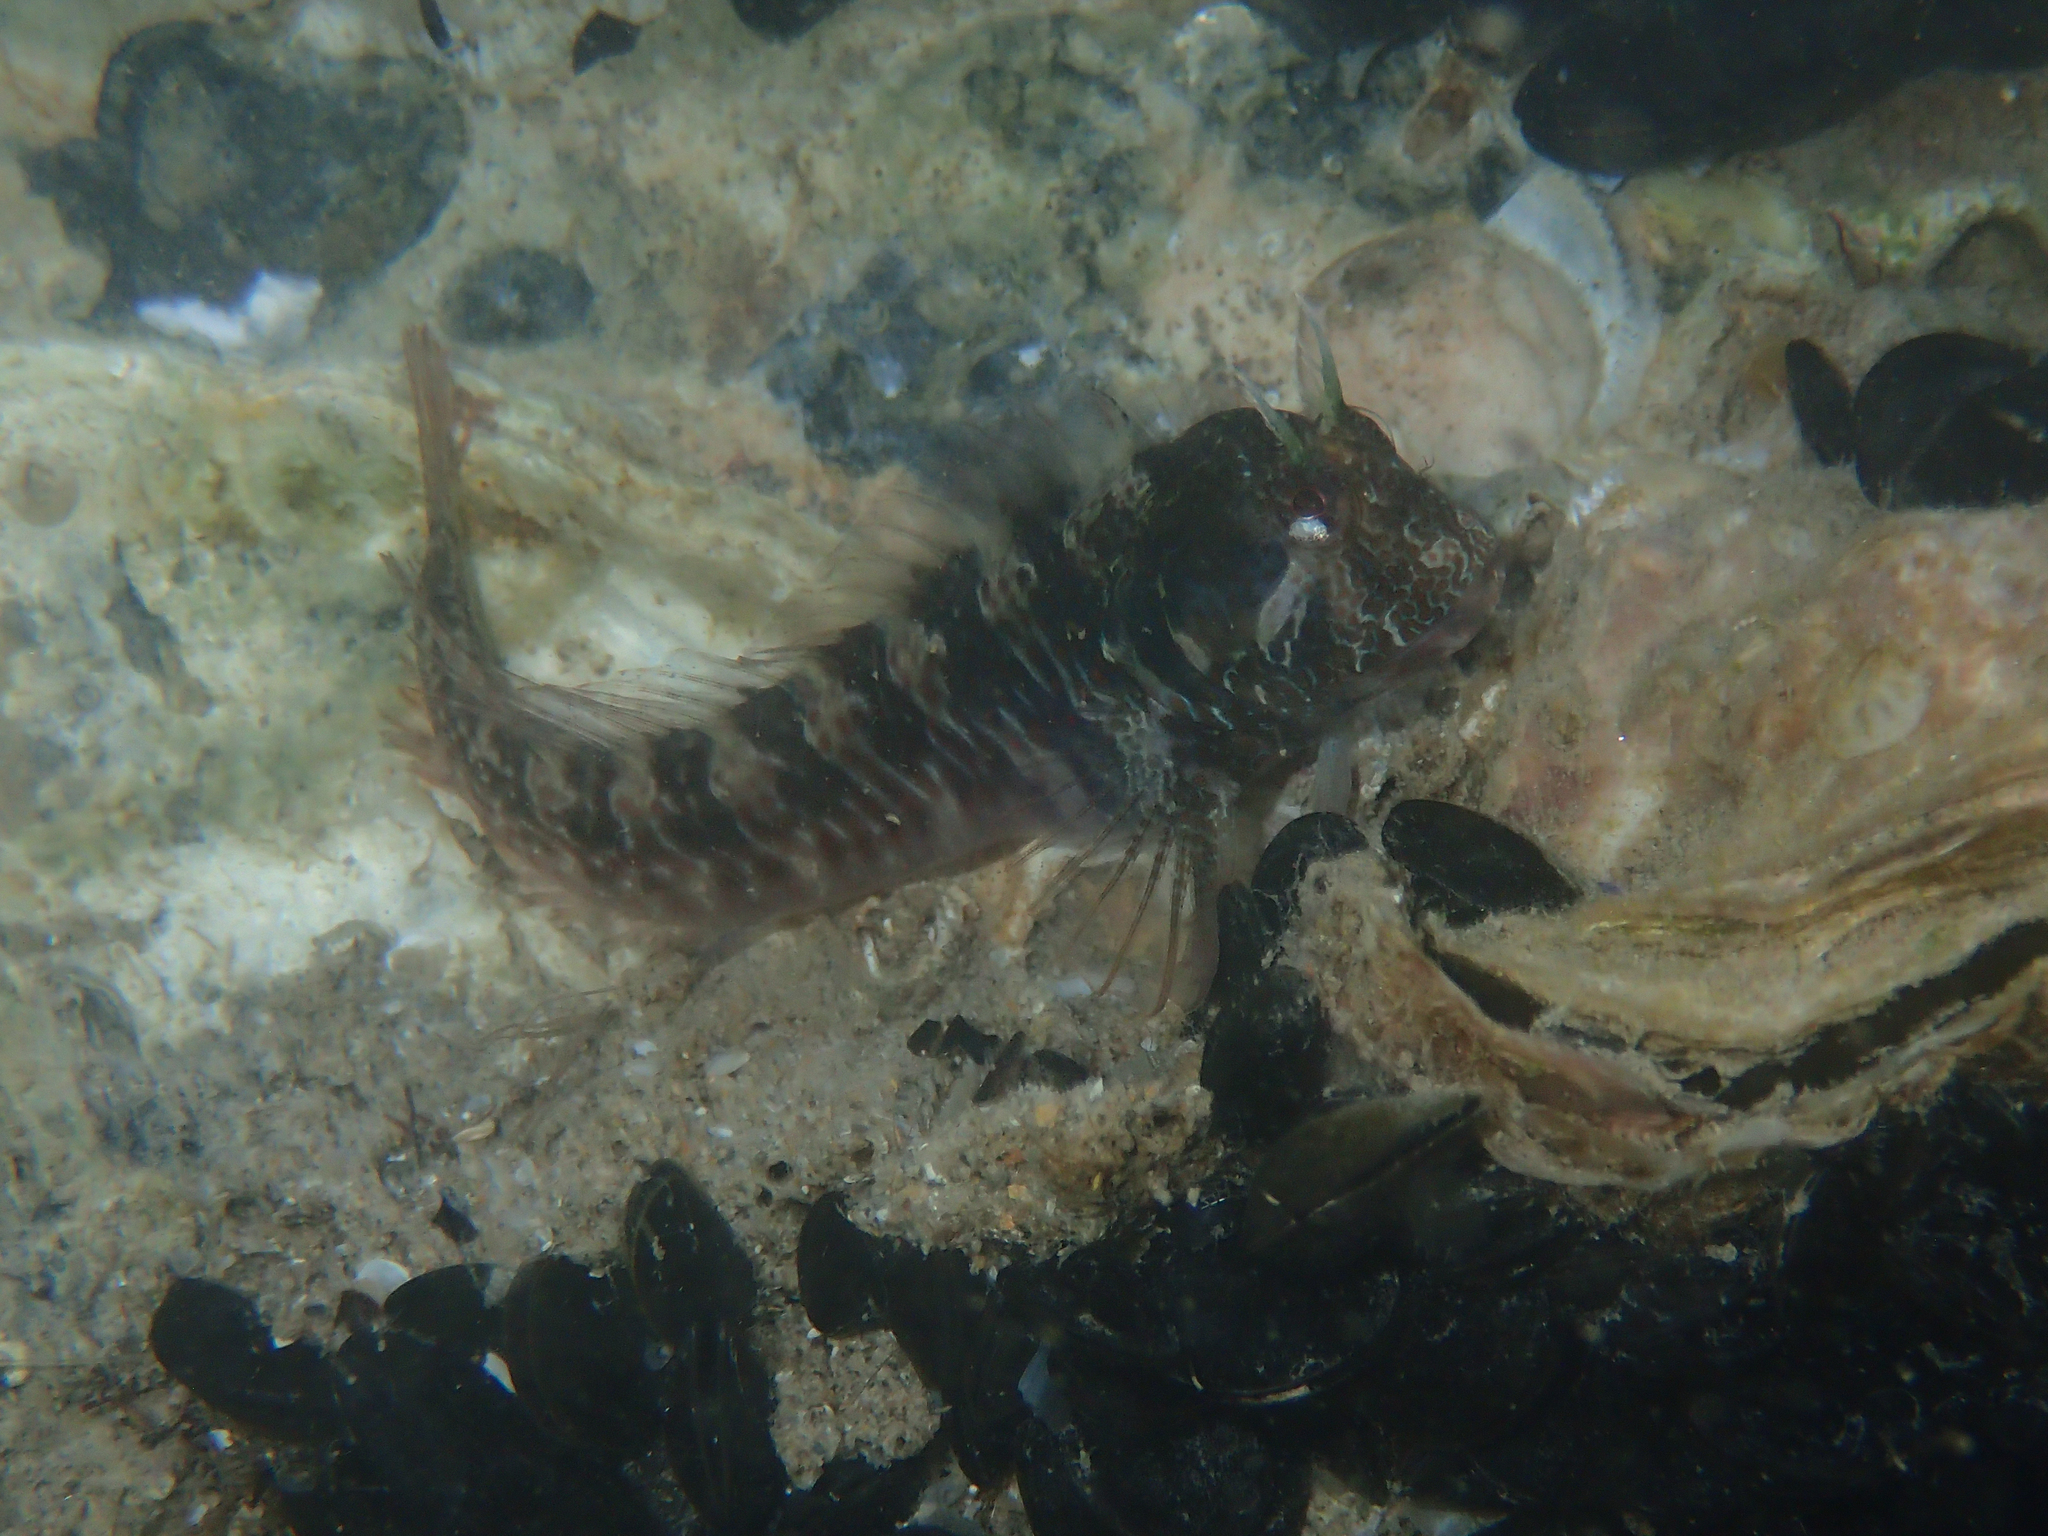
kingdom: Animalia
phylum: Chordata
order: Perciformes
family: Blenniidae
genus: Parablennius
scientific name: Parablennius incognitus
